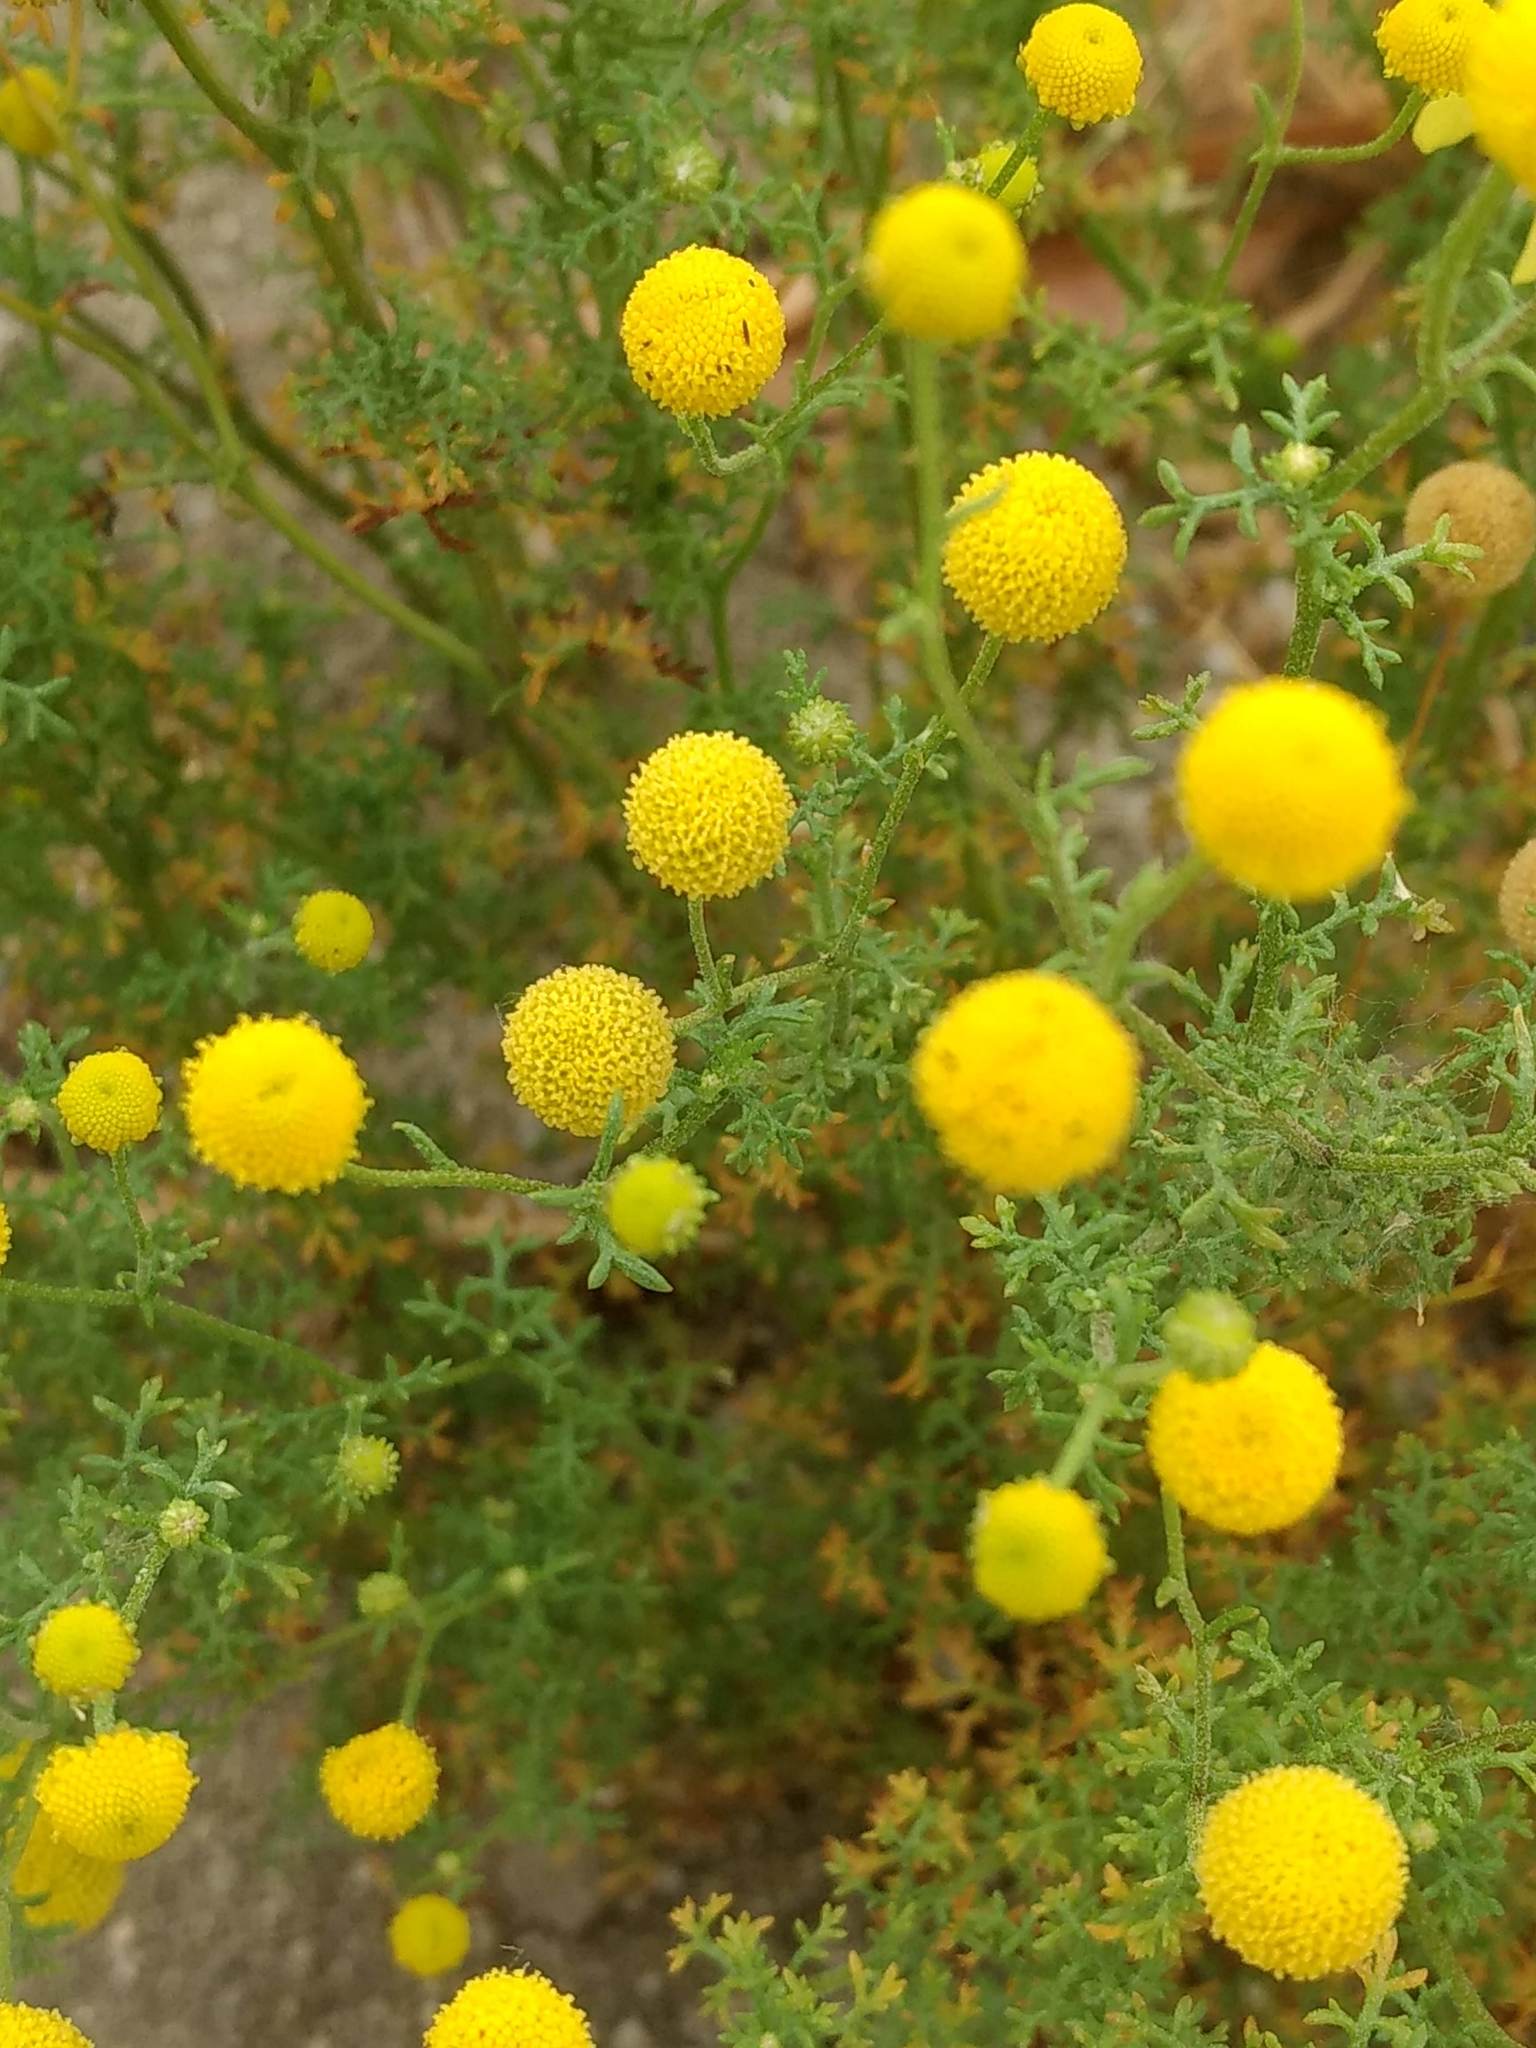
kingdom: Plantae
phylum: Tracheophyta
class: Magnoliopsida
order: Asterales
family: Asteraceae
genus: Oncosiphon
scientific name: Oncosiphon pilulifer
